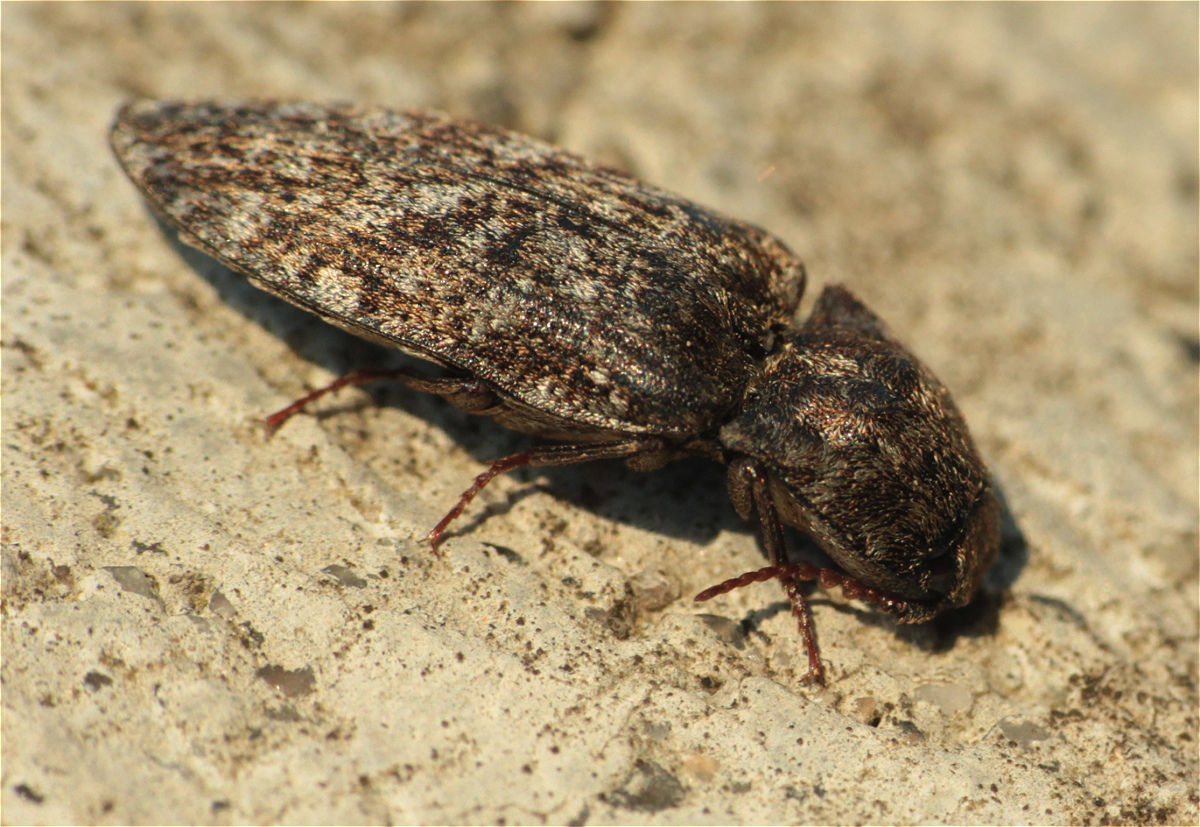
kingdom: Animalia
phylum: Arthropoda
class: Insecta
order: Coleoptera
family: Elateridae
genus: Agrypnus
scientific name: Agrypnus murinus
